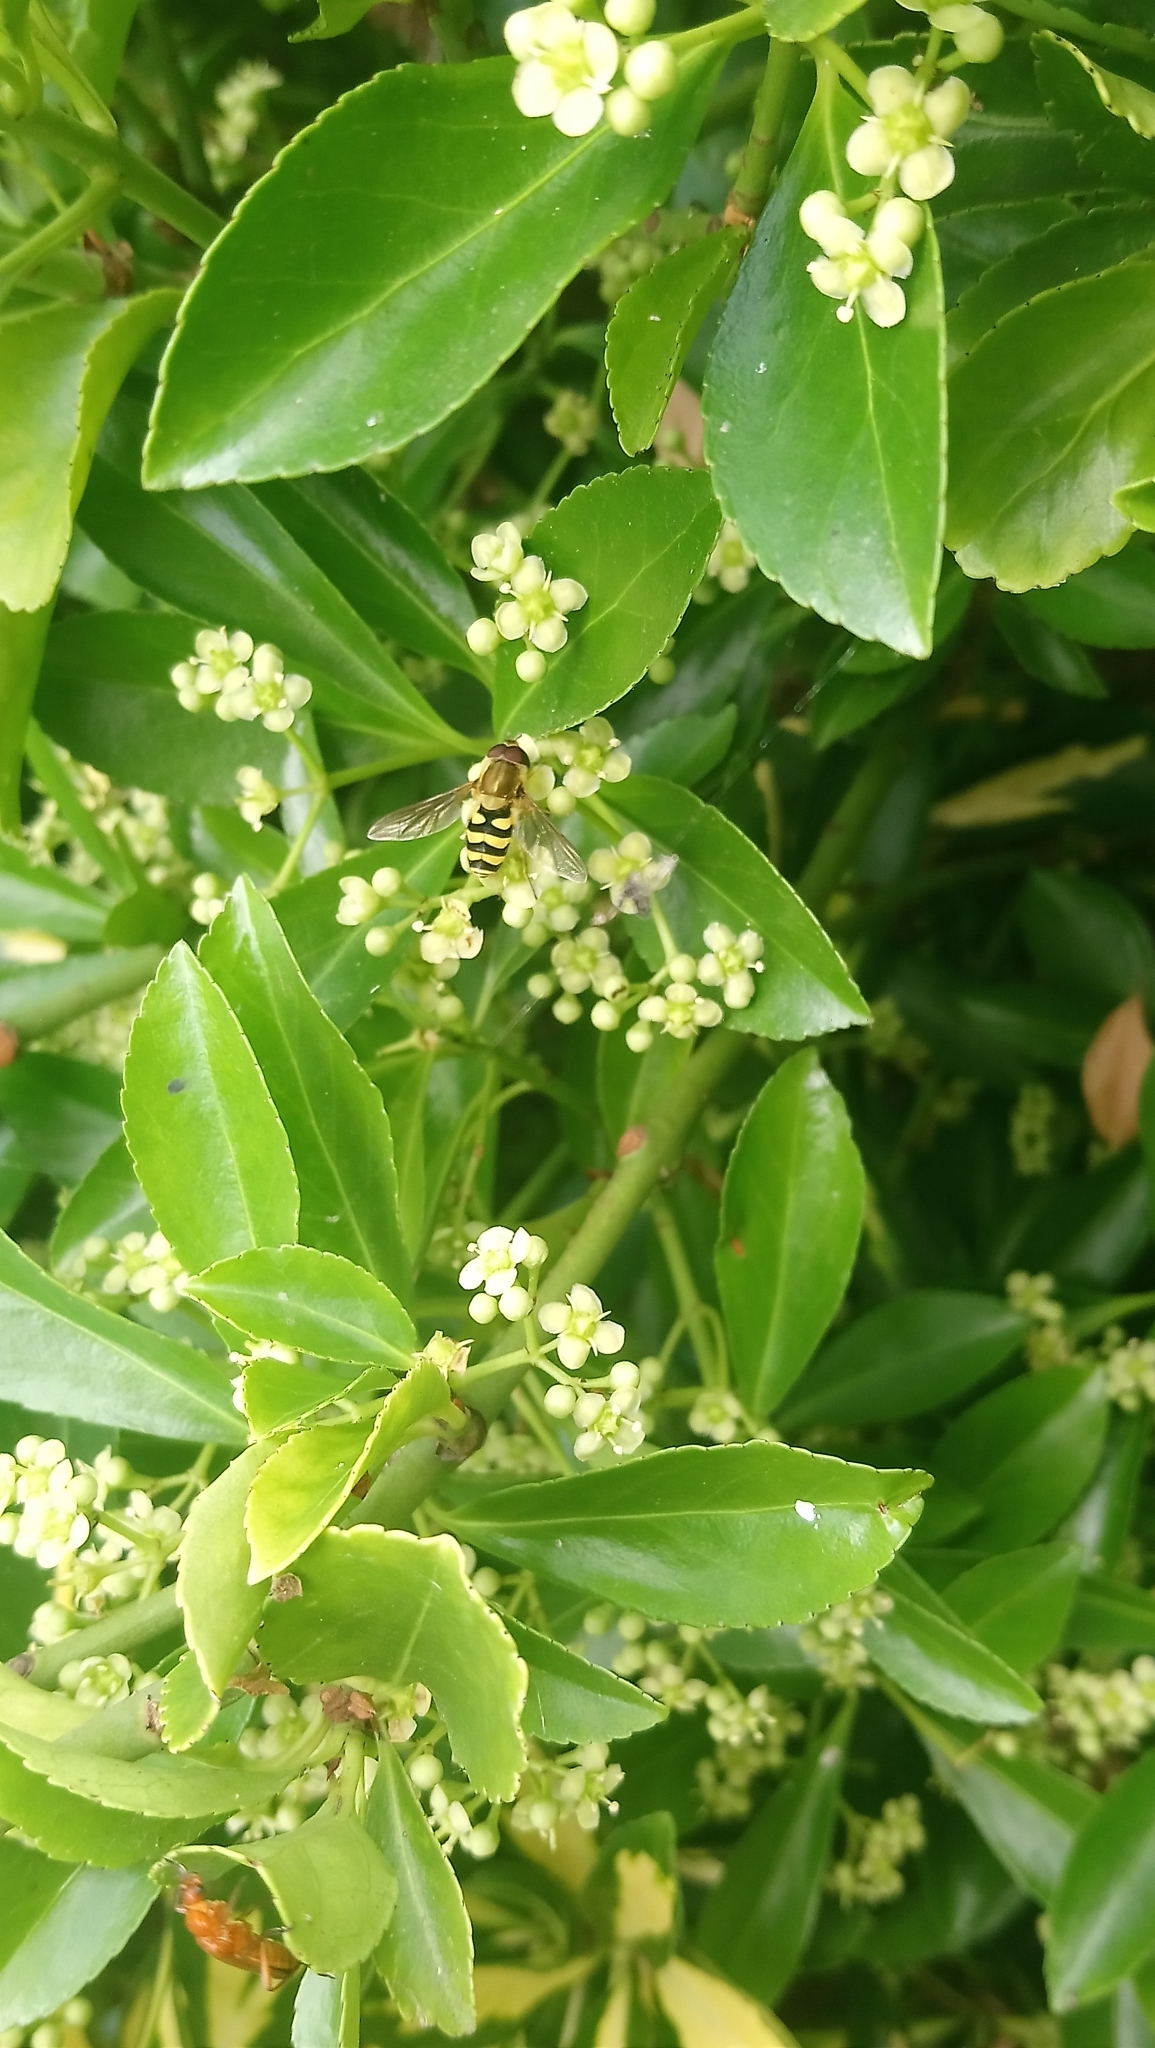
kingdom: Animalia
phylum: Arthropoda
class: Insecta
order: Diptera
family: Syrphidae
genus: Syrphus
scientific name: Syrphus
